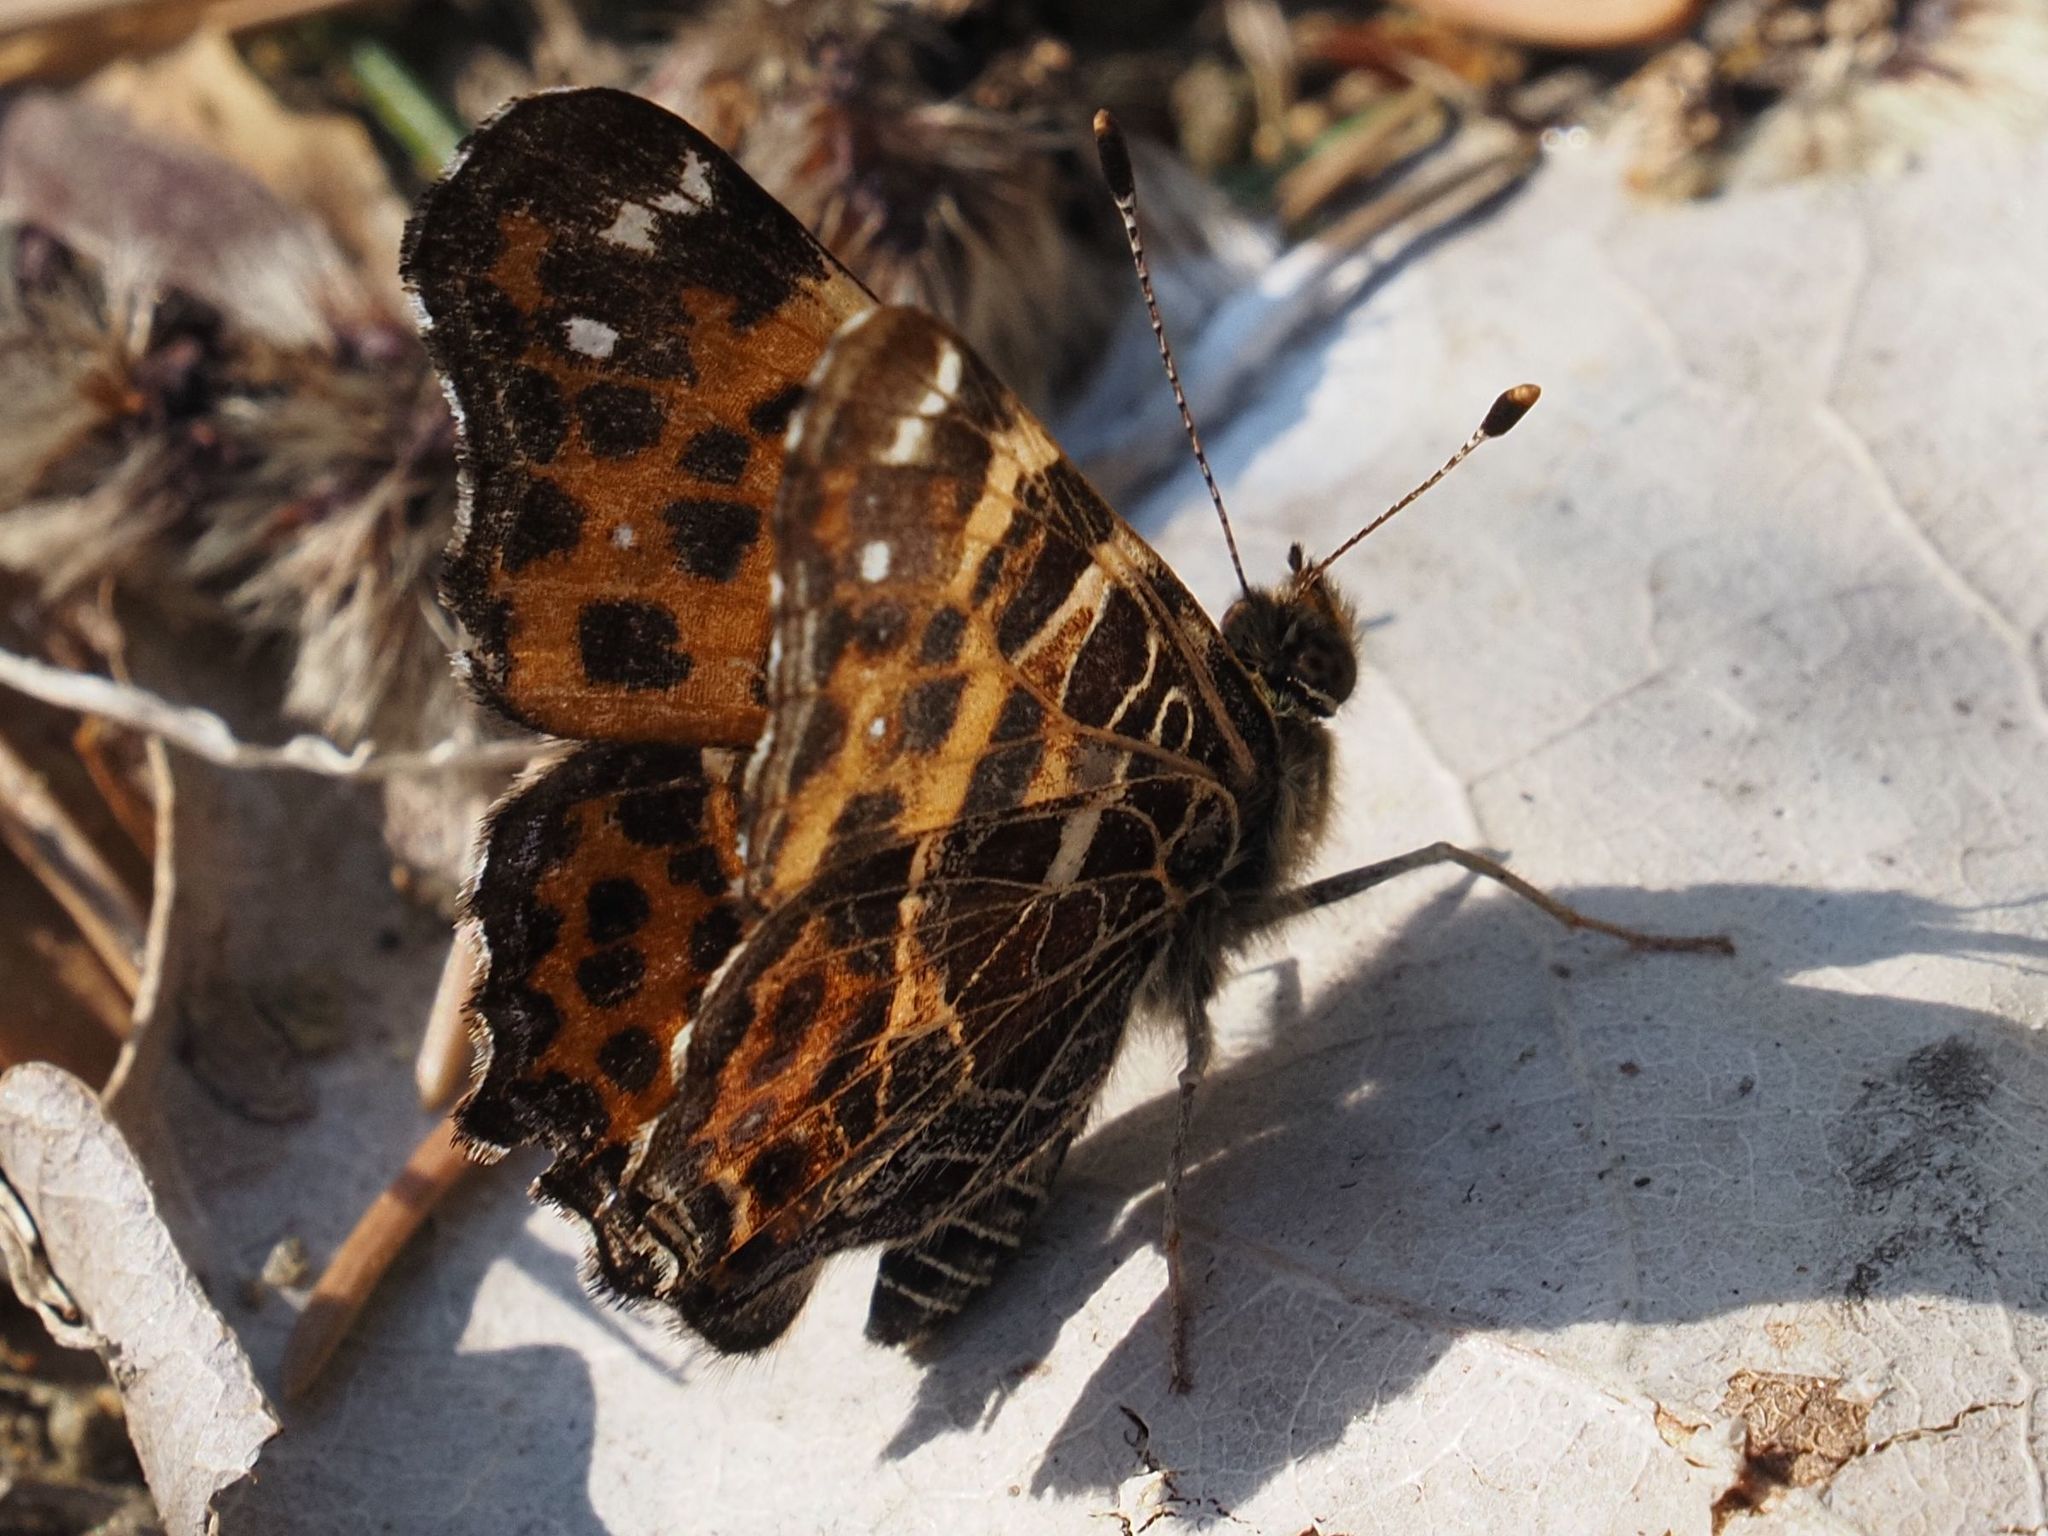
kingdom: Animalia
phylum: Arthropoda
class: Insecta
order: Lepidoptera
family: Nymphalidae
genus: Araschnia
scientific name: Araschnia levana
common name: Map butterfly
